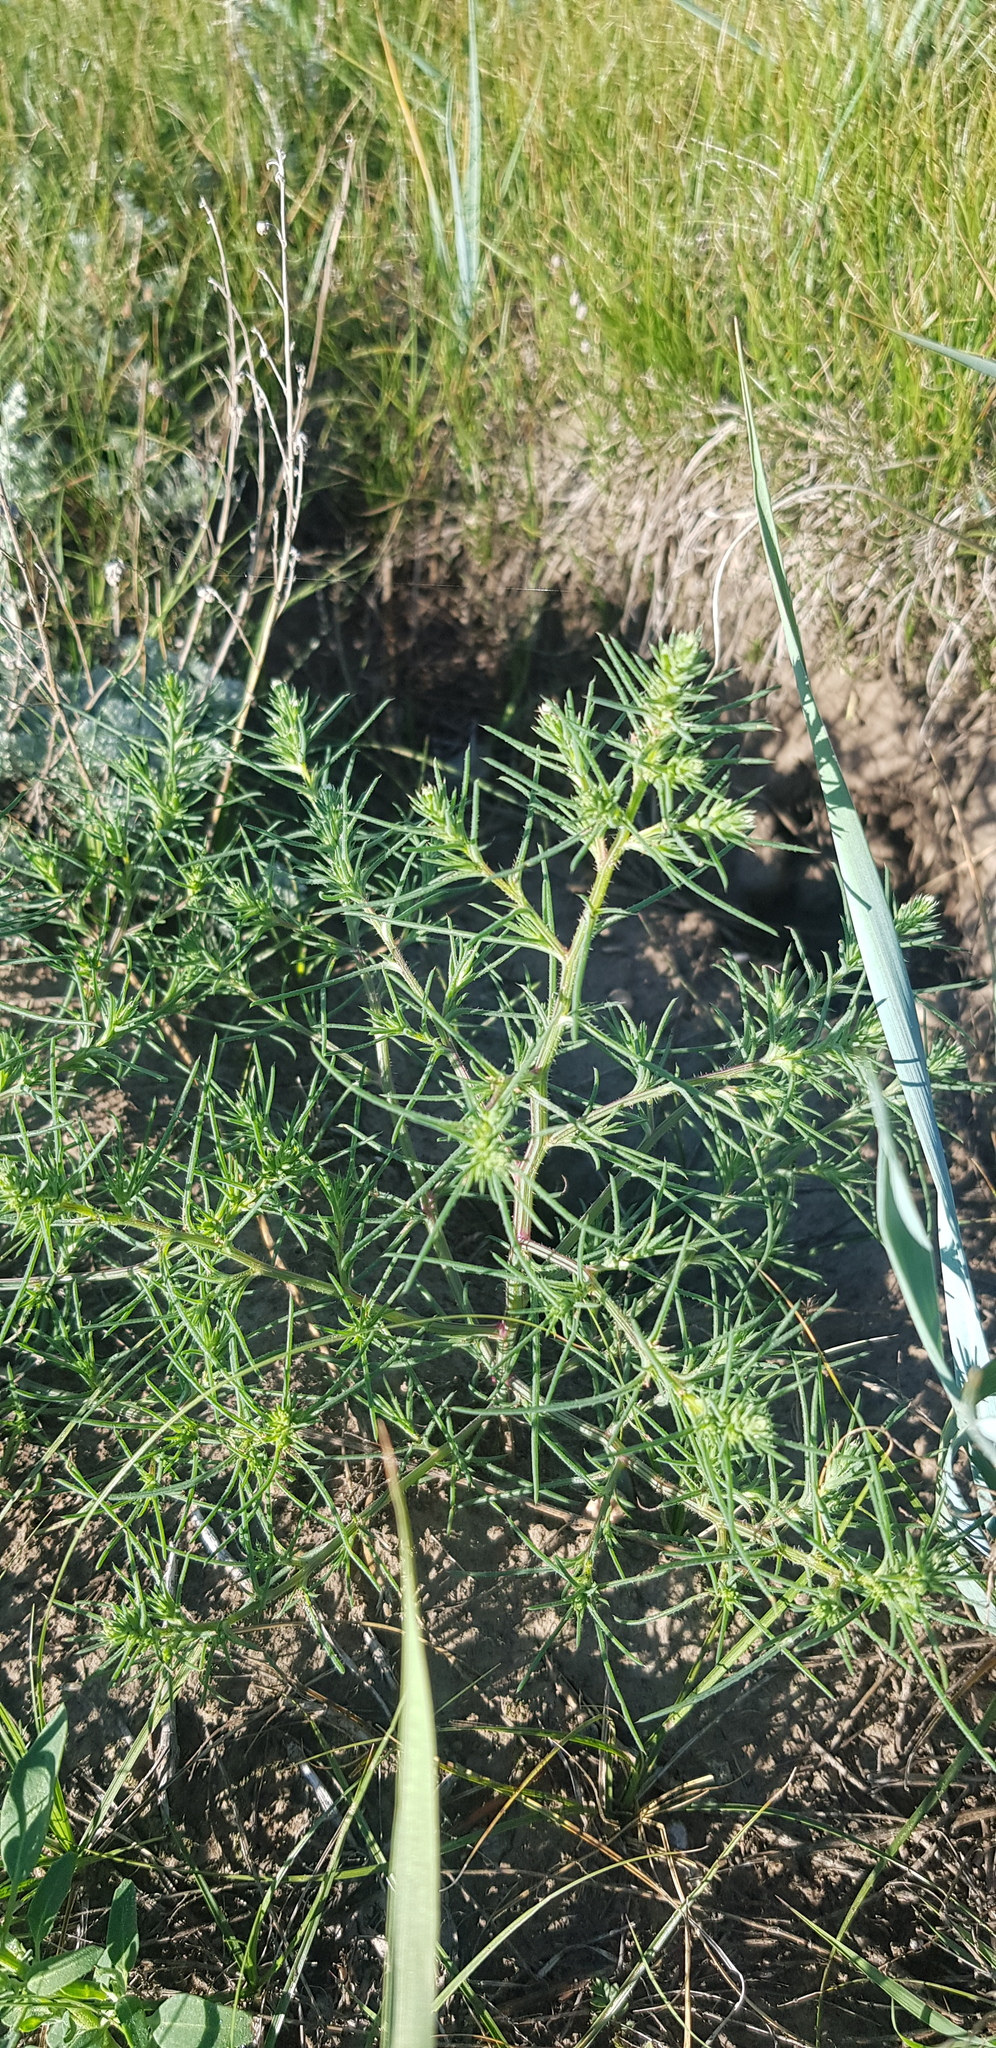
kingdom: Plantae
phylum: Tracheophyta
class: Magnoliopsida
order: Caryophyllales
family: Amaranthaceae
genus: Salsola
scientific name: Salsola collina
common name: Tumbleweed
